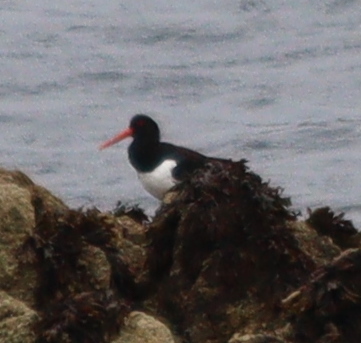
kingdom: Animalia
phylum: Chordata
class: Aves
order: Charadriiformes
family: Haematopodidae
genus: Haematopus
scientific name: Haematopus ostralegus
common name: Eurasian oystercatcher
